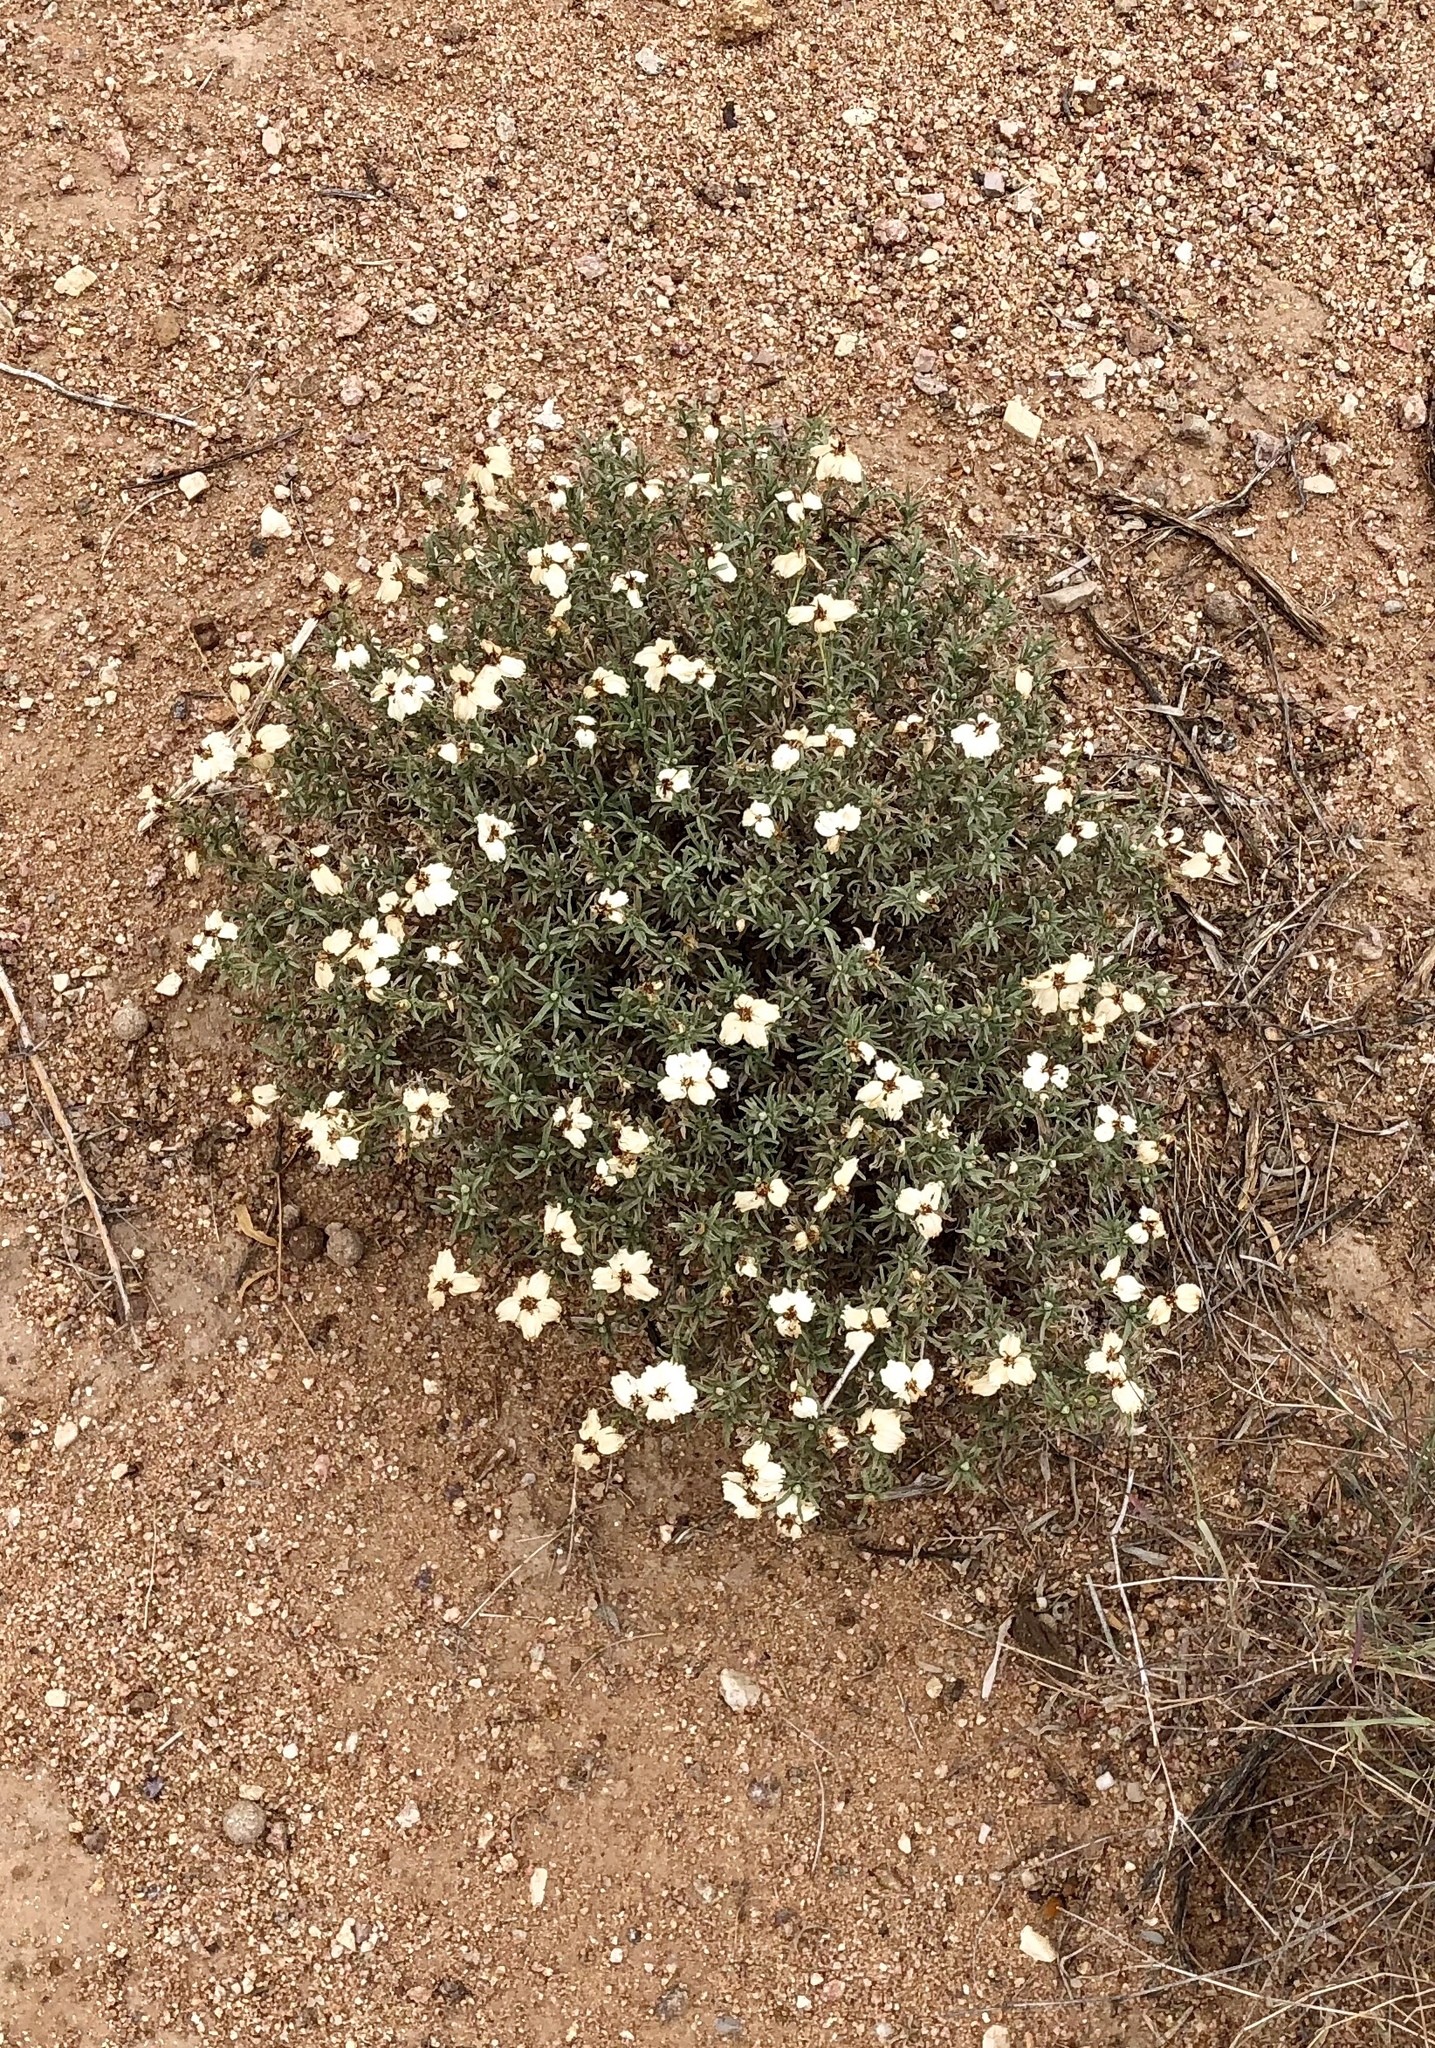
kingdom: Plantae
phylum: Tracheophyta
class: Magnoliopsida
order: Asterales
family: Asteraceae
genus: Zinnia
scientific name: Zinnia acerosa
